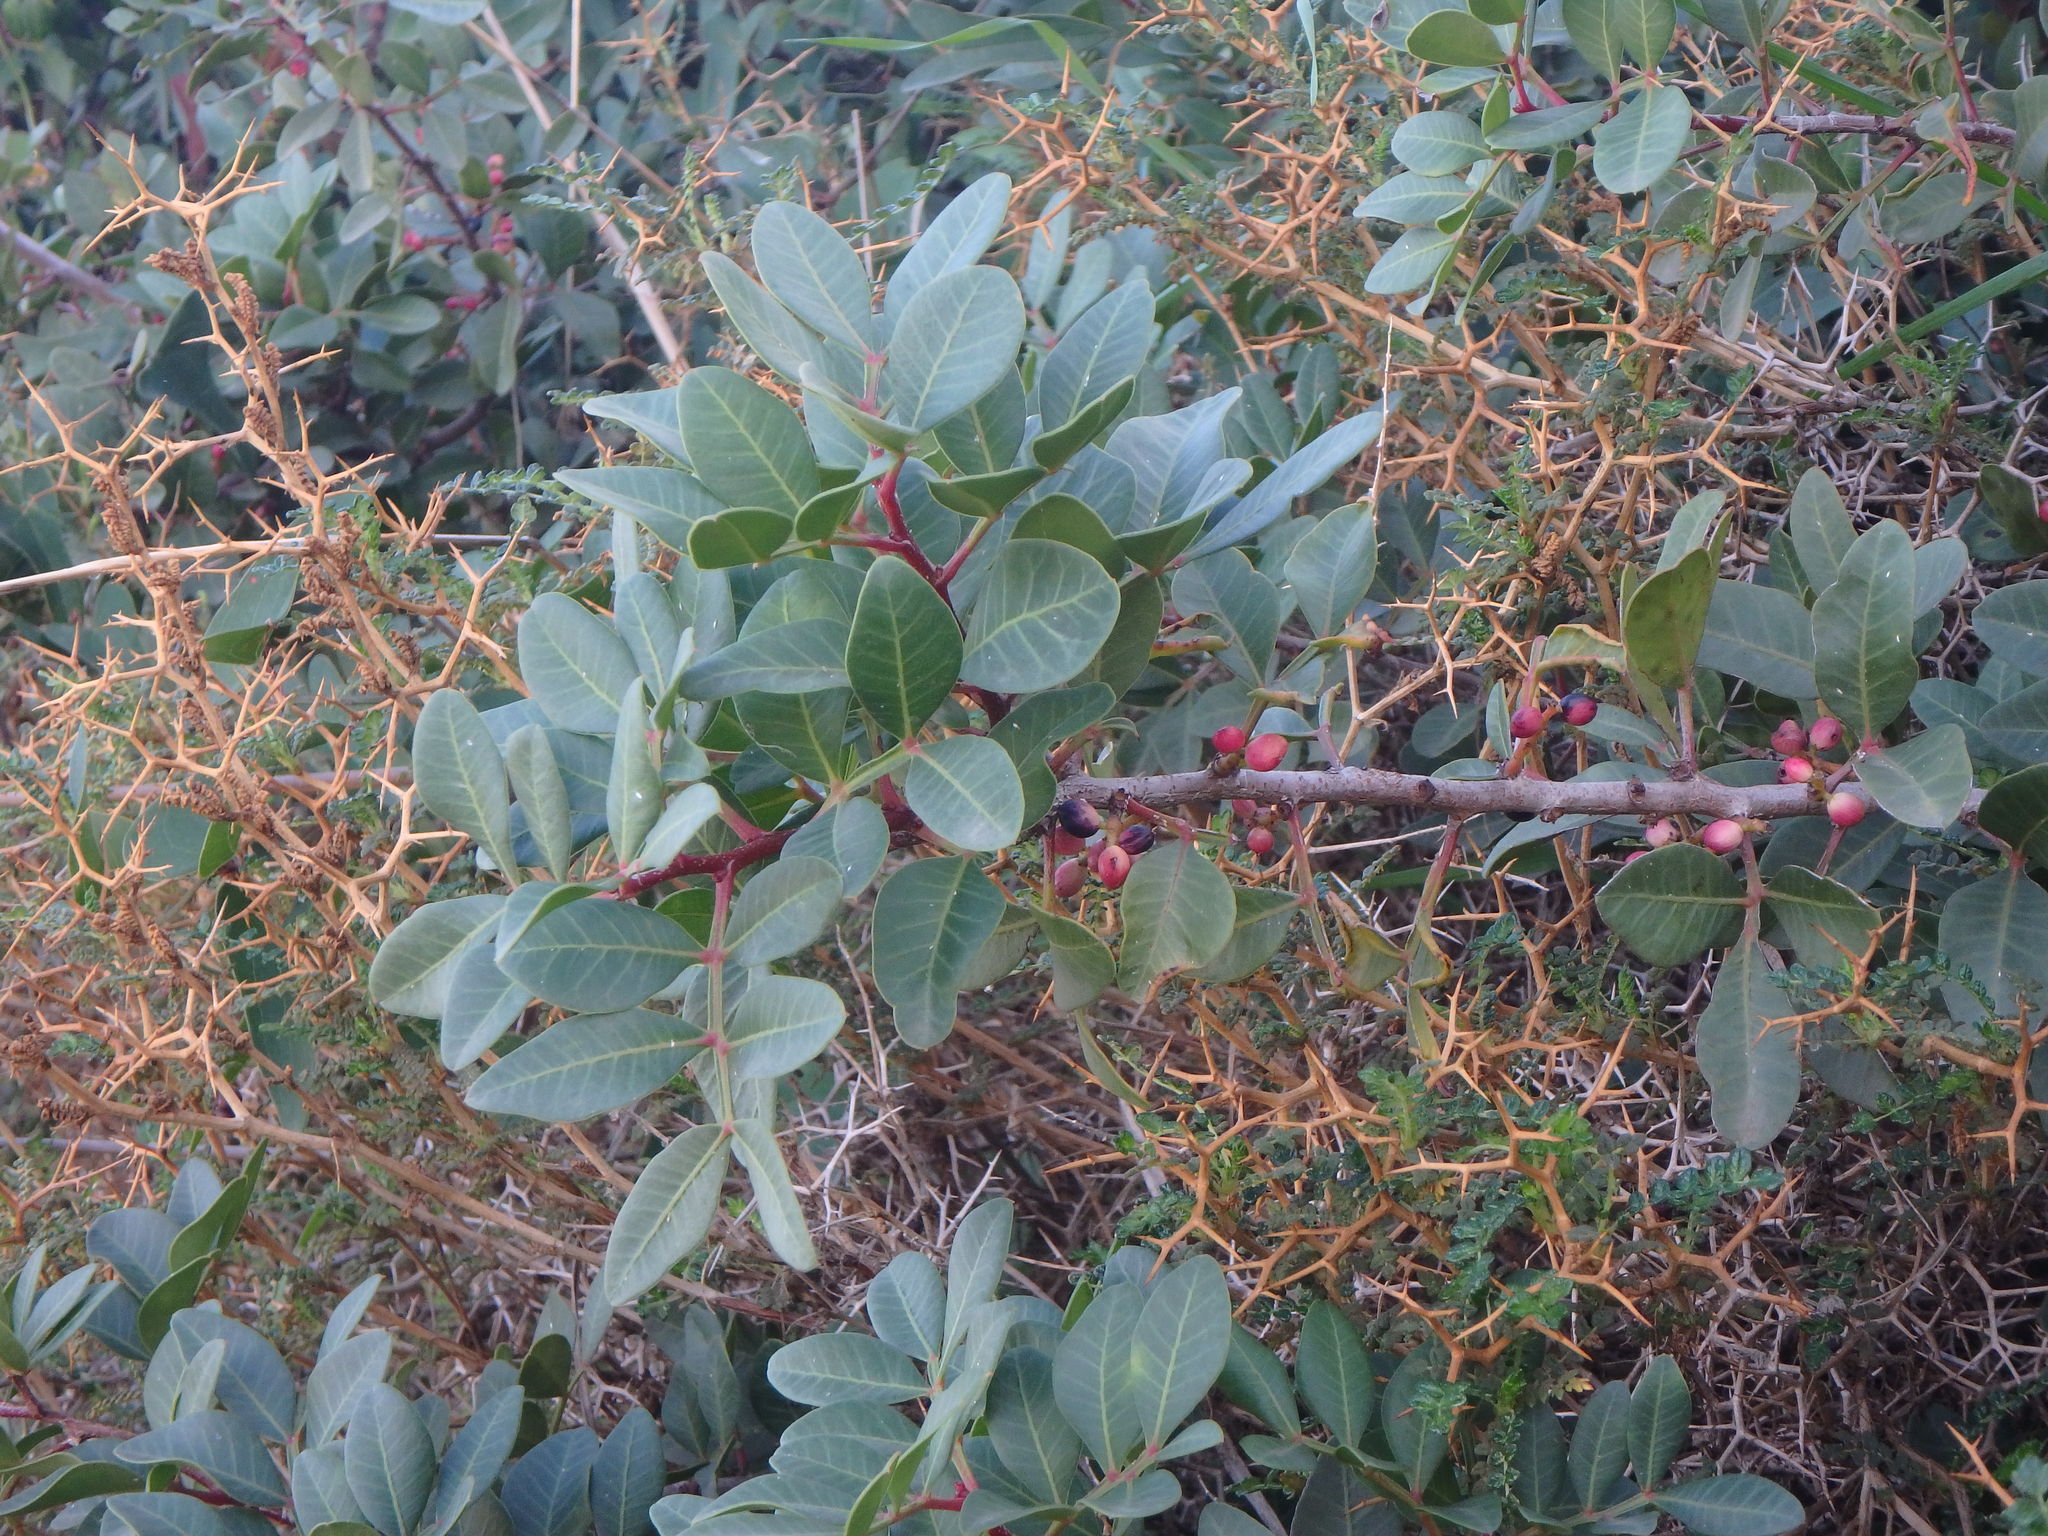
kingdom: Plantae
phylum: Tracheophyta
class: Magnoliopsida
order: Sapindales
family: Anacardiaceae
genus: Pistacia
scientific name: Pistacia lentiscus
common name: Lentisk
